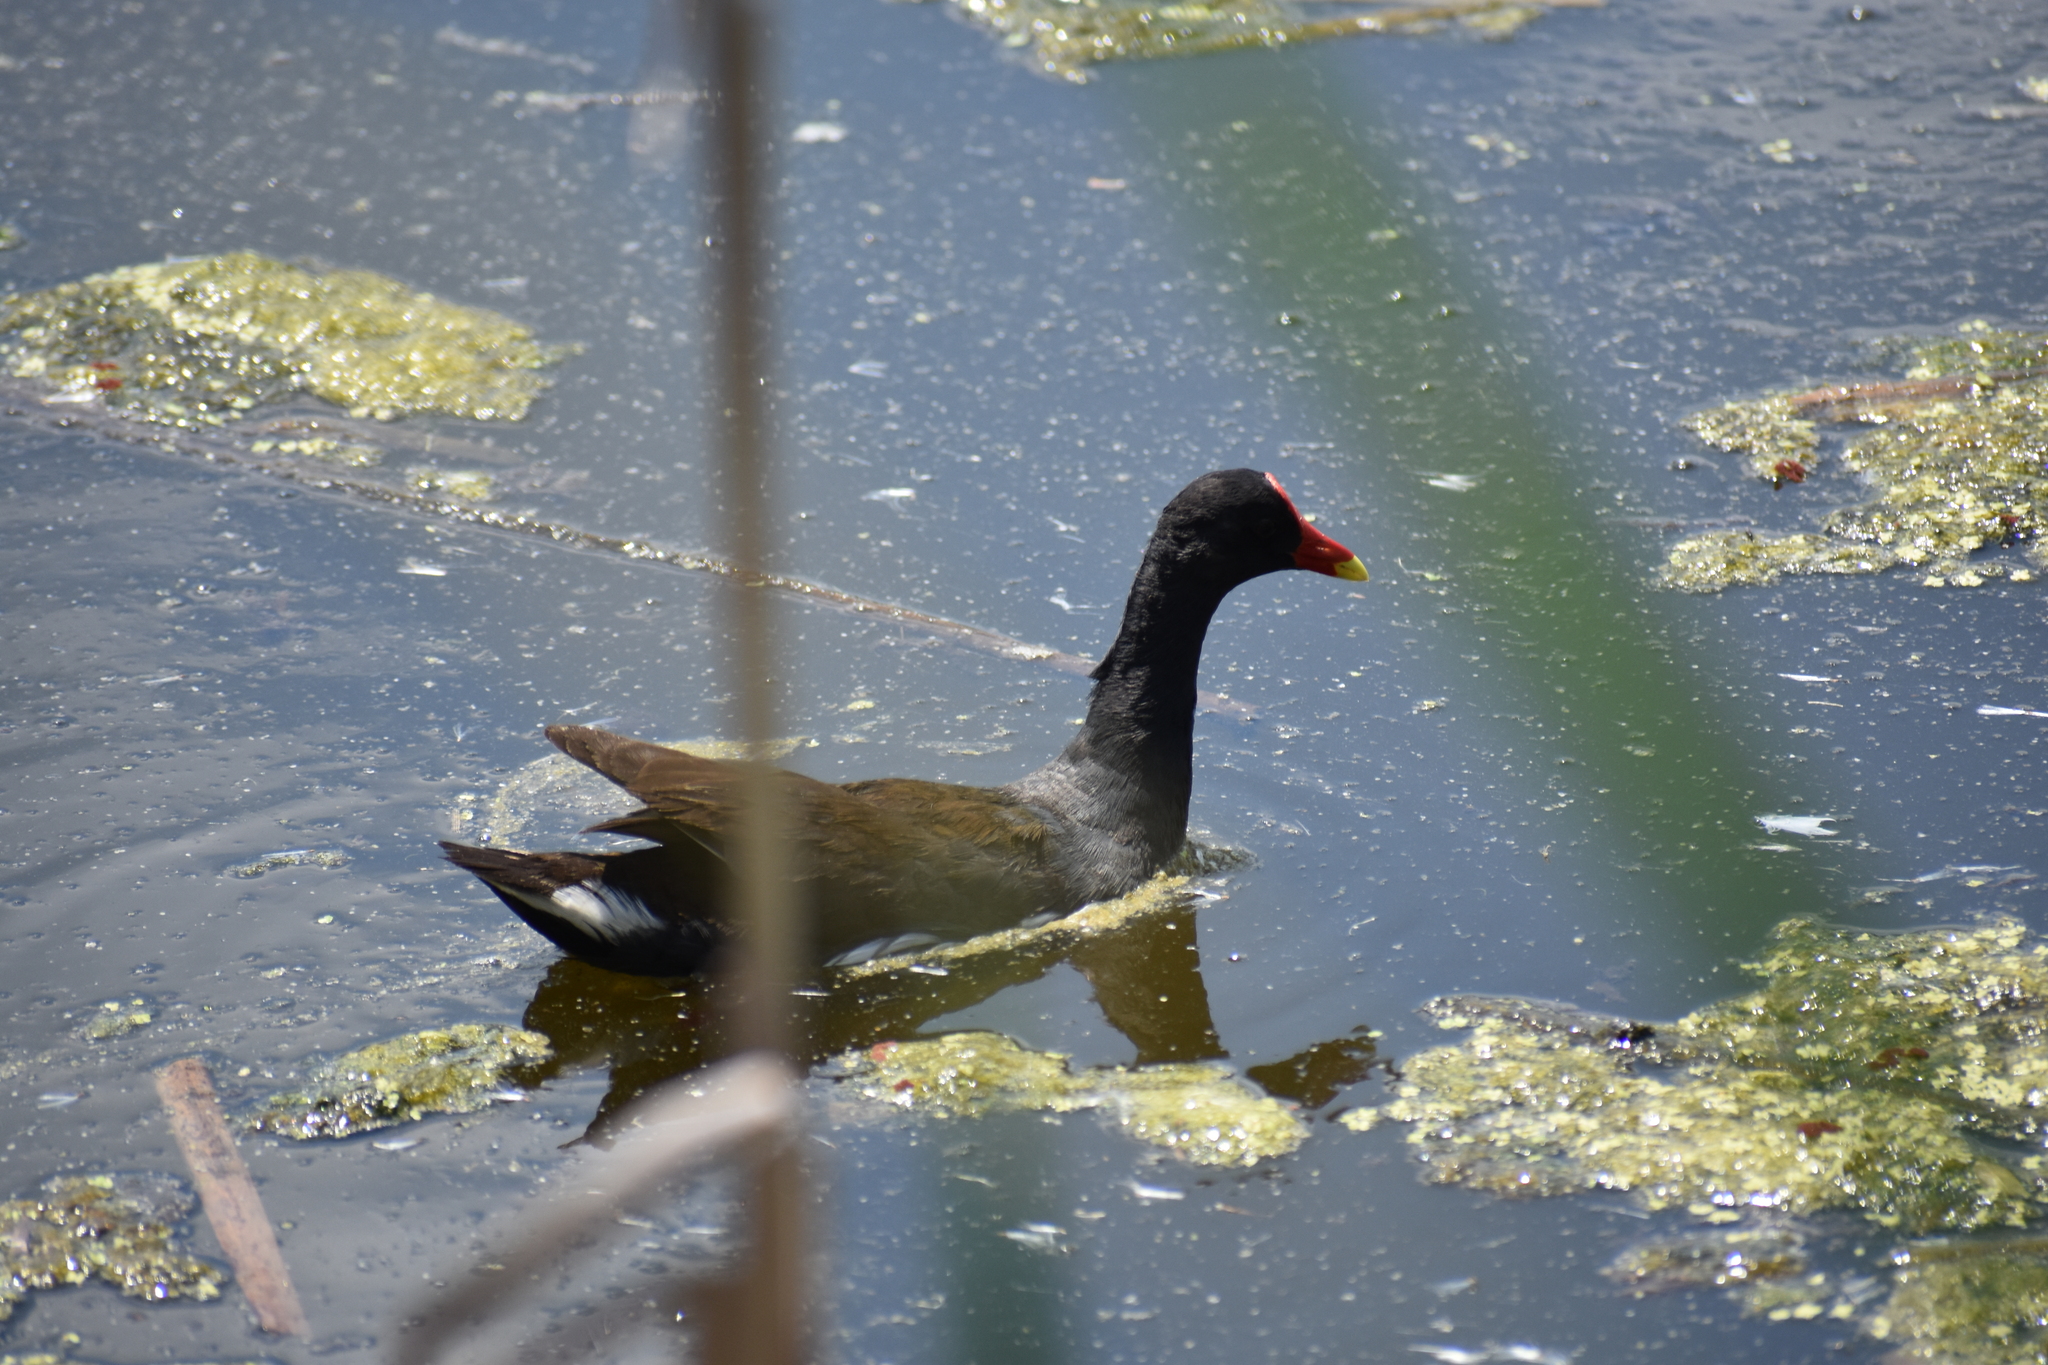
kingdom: Animalia
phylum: Chordata
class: Aves
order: Gruiformes
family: Rallidae
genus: Gallinula
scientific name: Gallinula chloropus
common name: Common moorhen
